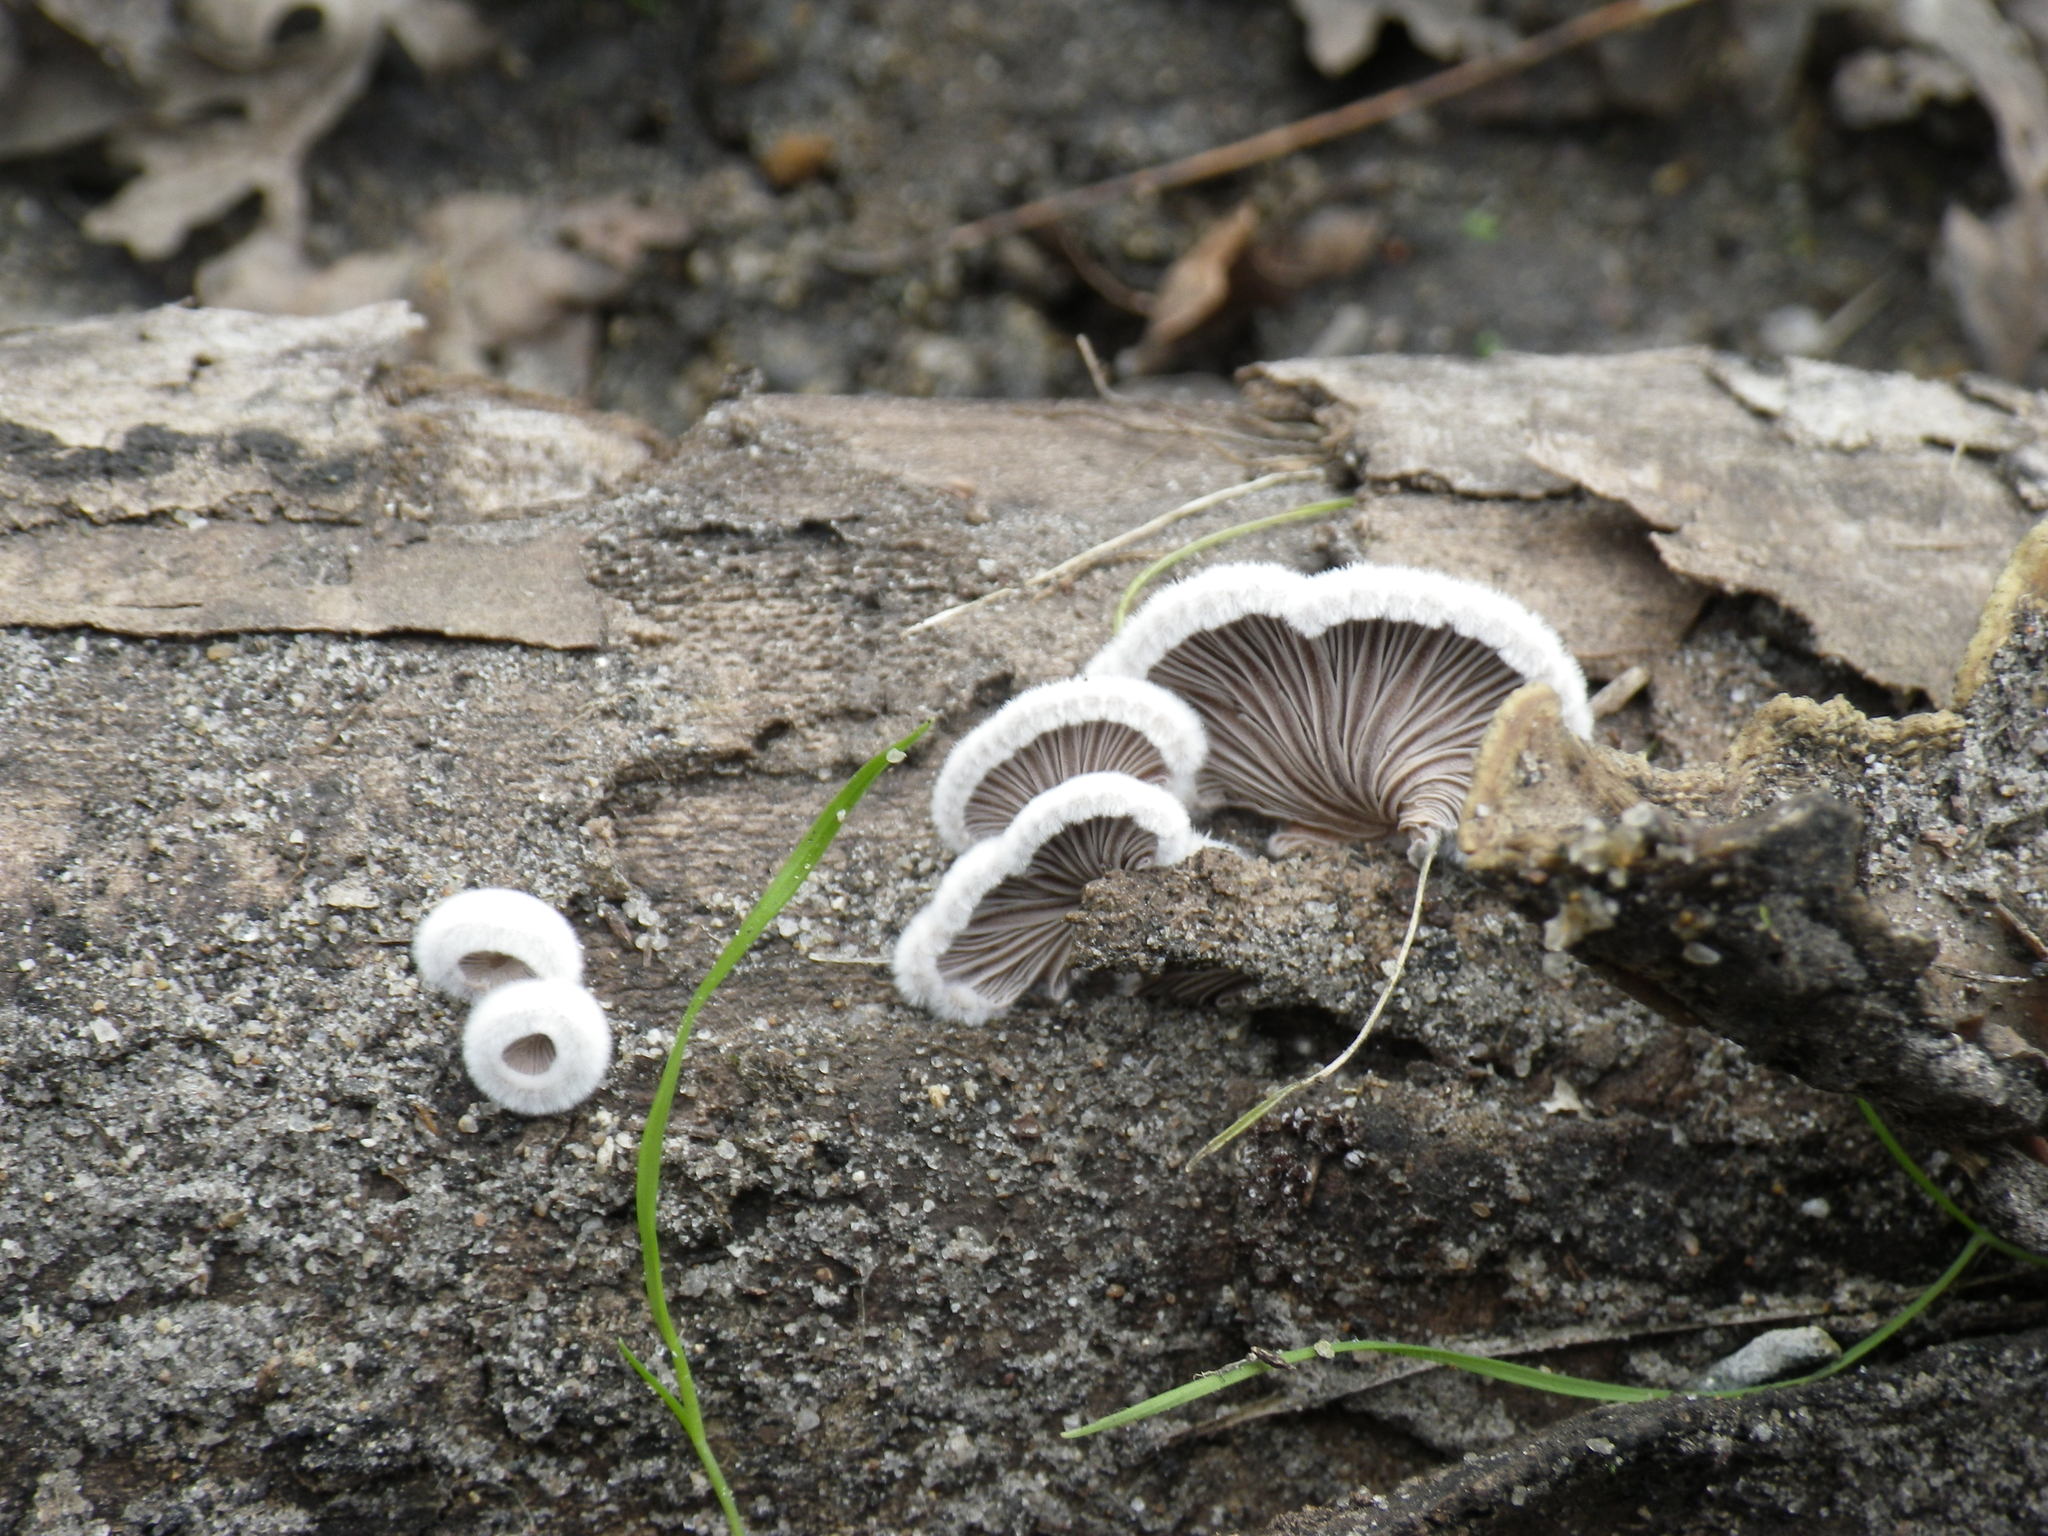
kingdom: Fungi
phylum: Basidiomycota
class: Agaricomycetes
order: Agaricales
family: Schizophyllaceae
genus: Schizophyllum
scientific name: Schizophyllum commune
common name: Common porecrust
